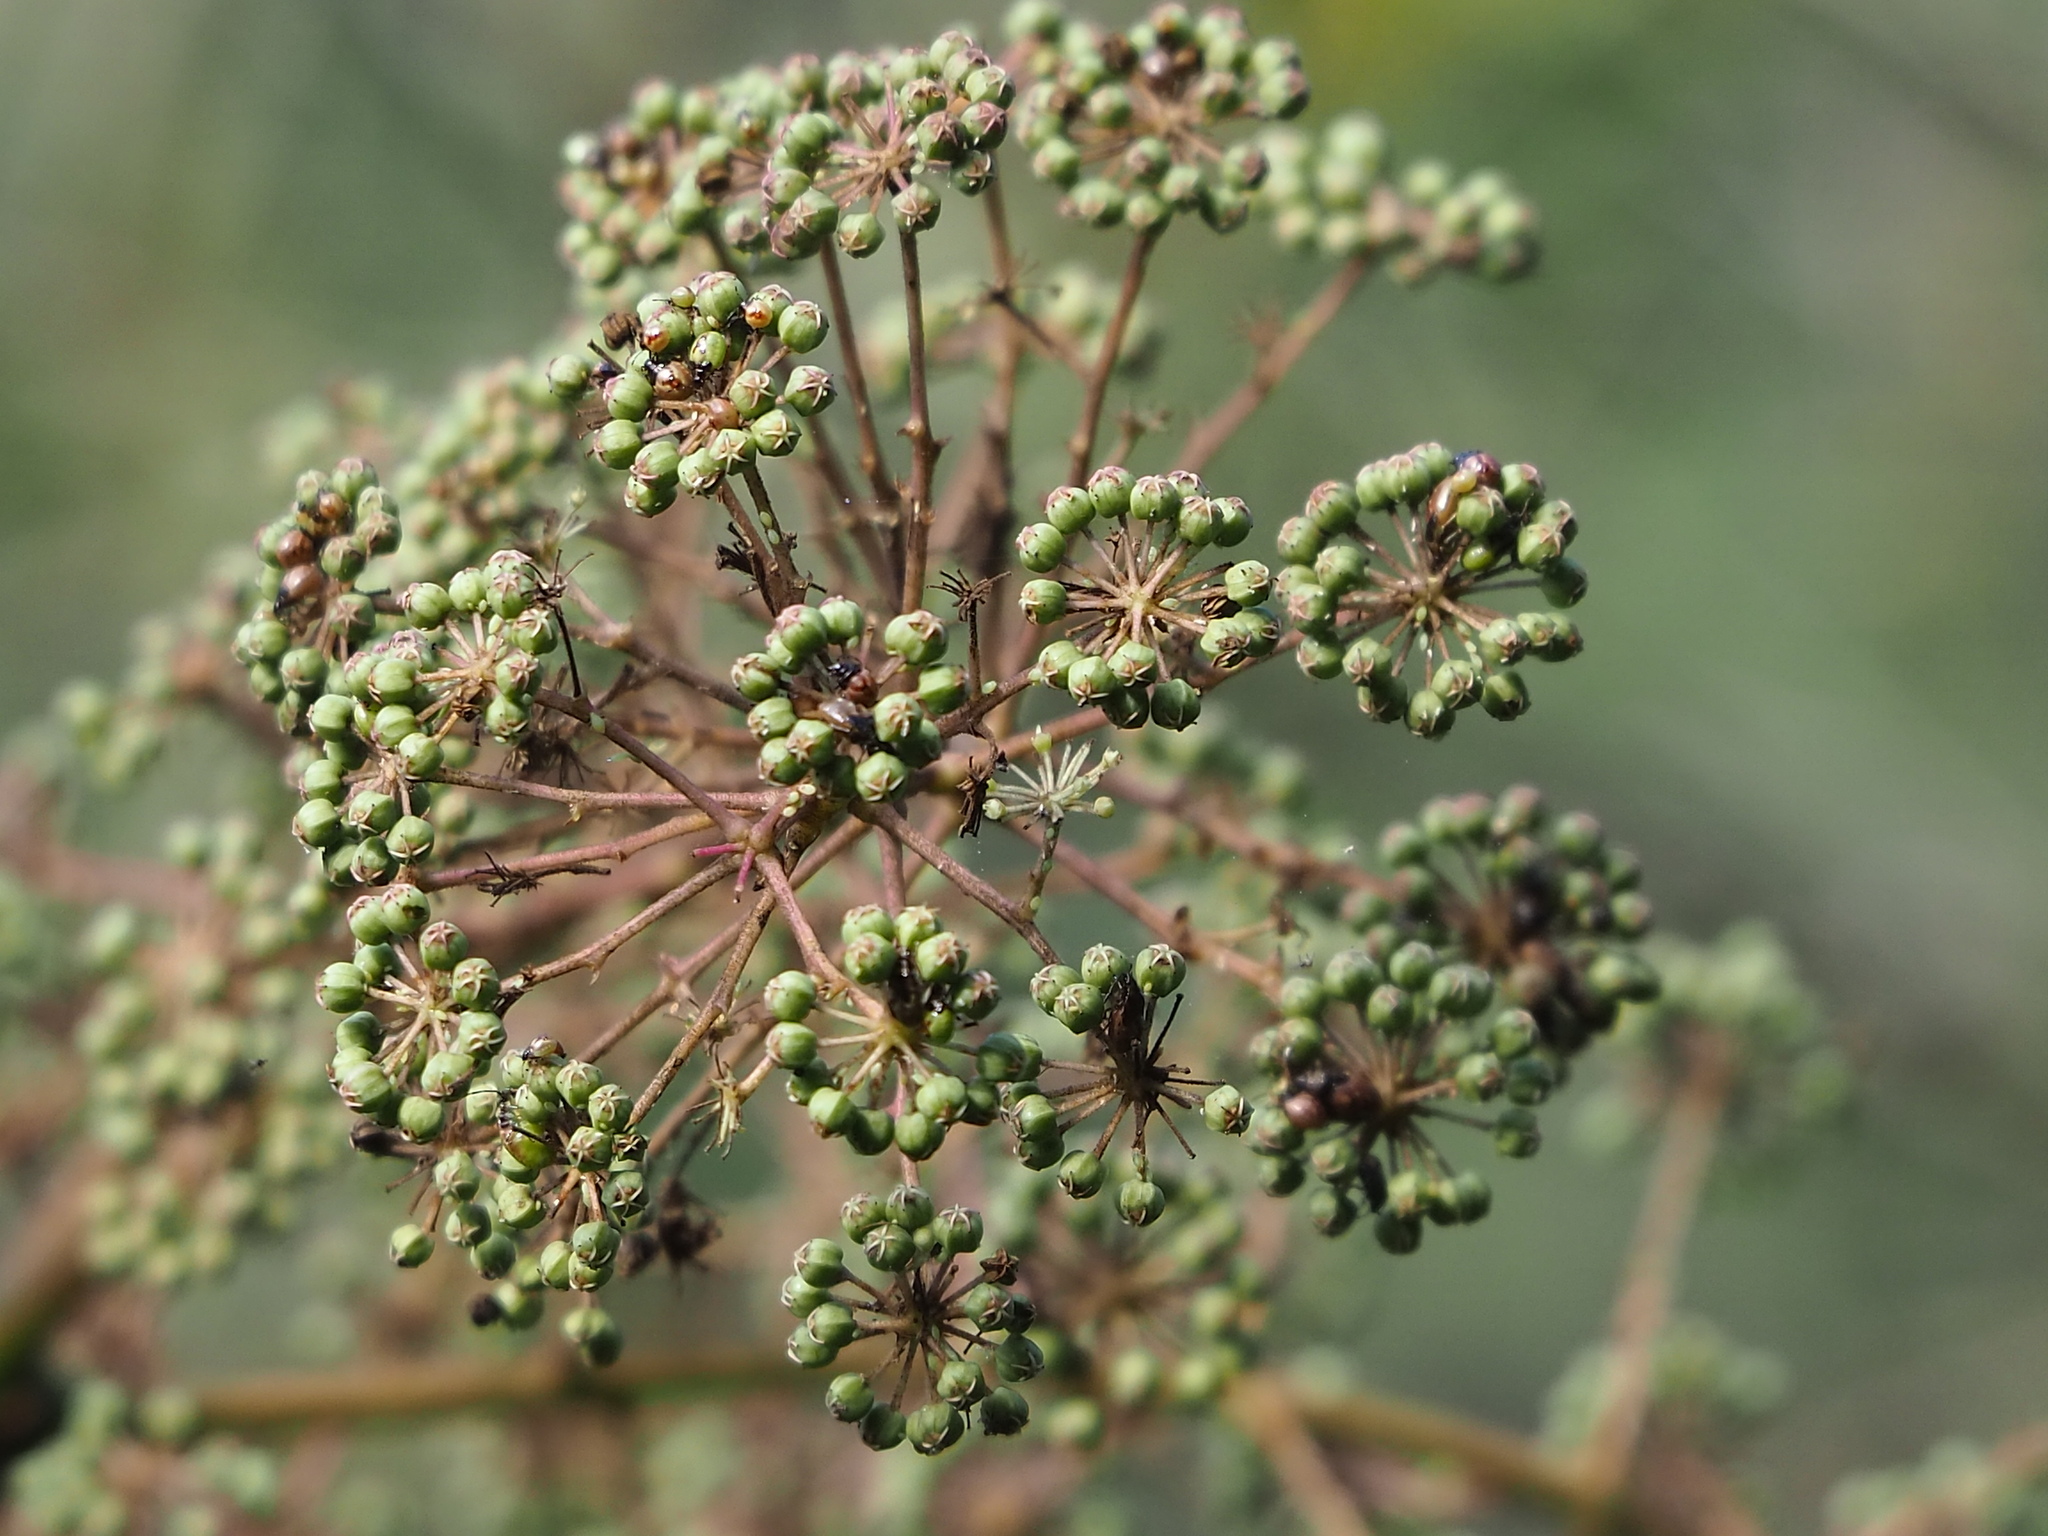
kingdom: Plantae
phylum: Tracheophyta
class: Magnoliopsida
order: Apiales
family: Araliaceae
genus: Aralia
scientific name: Aralia bipinnata
